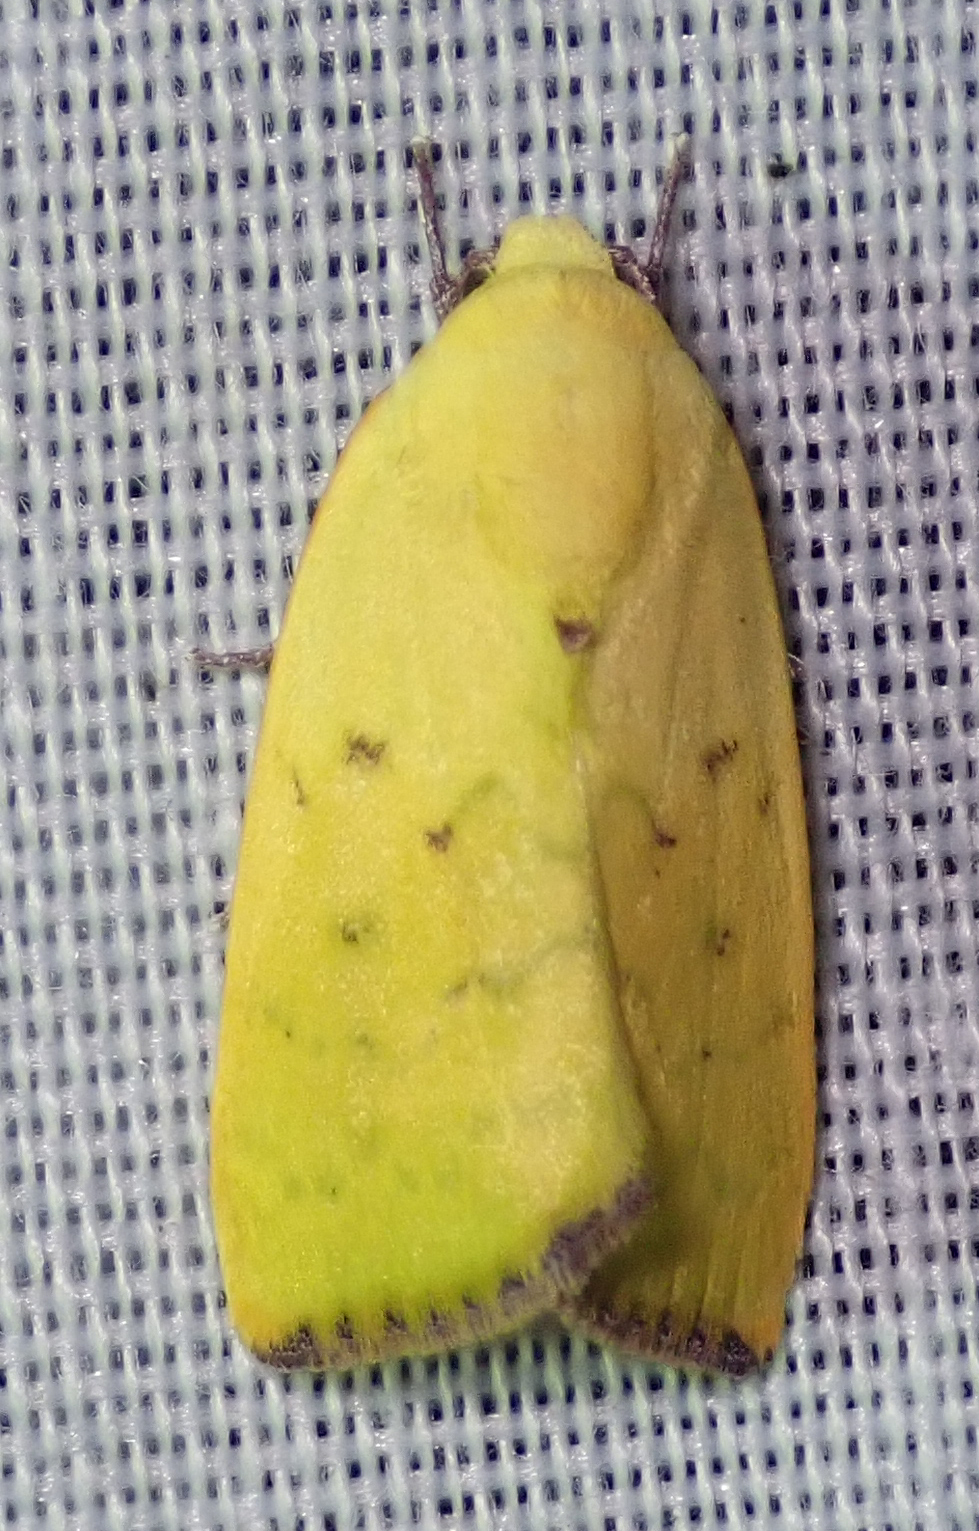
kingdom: Animalia
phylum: Arthropoda
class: Insecta
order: Lepidoptera
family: Nolidae
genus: Earias
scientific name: Earias biplaga
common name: Spiny bollworm
